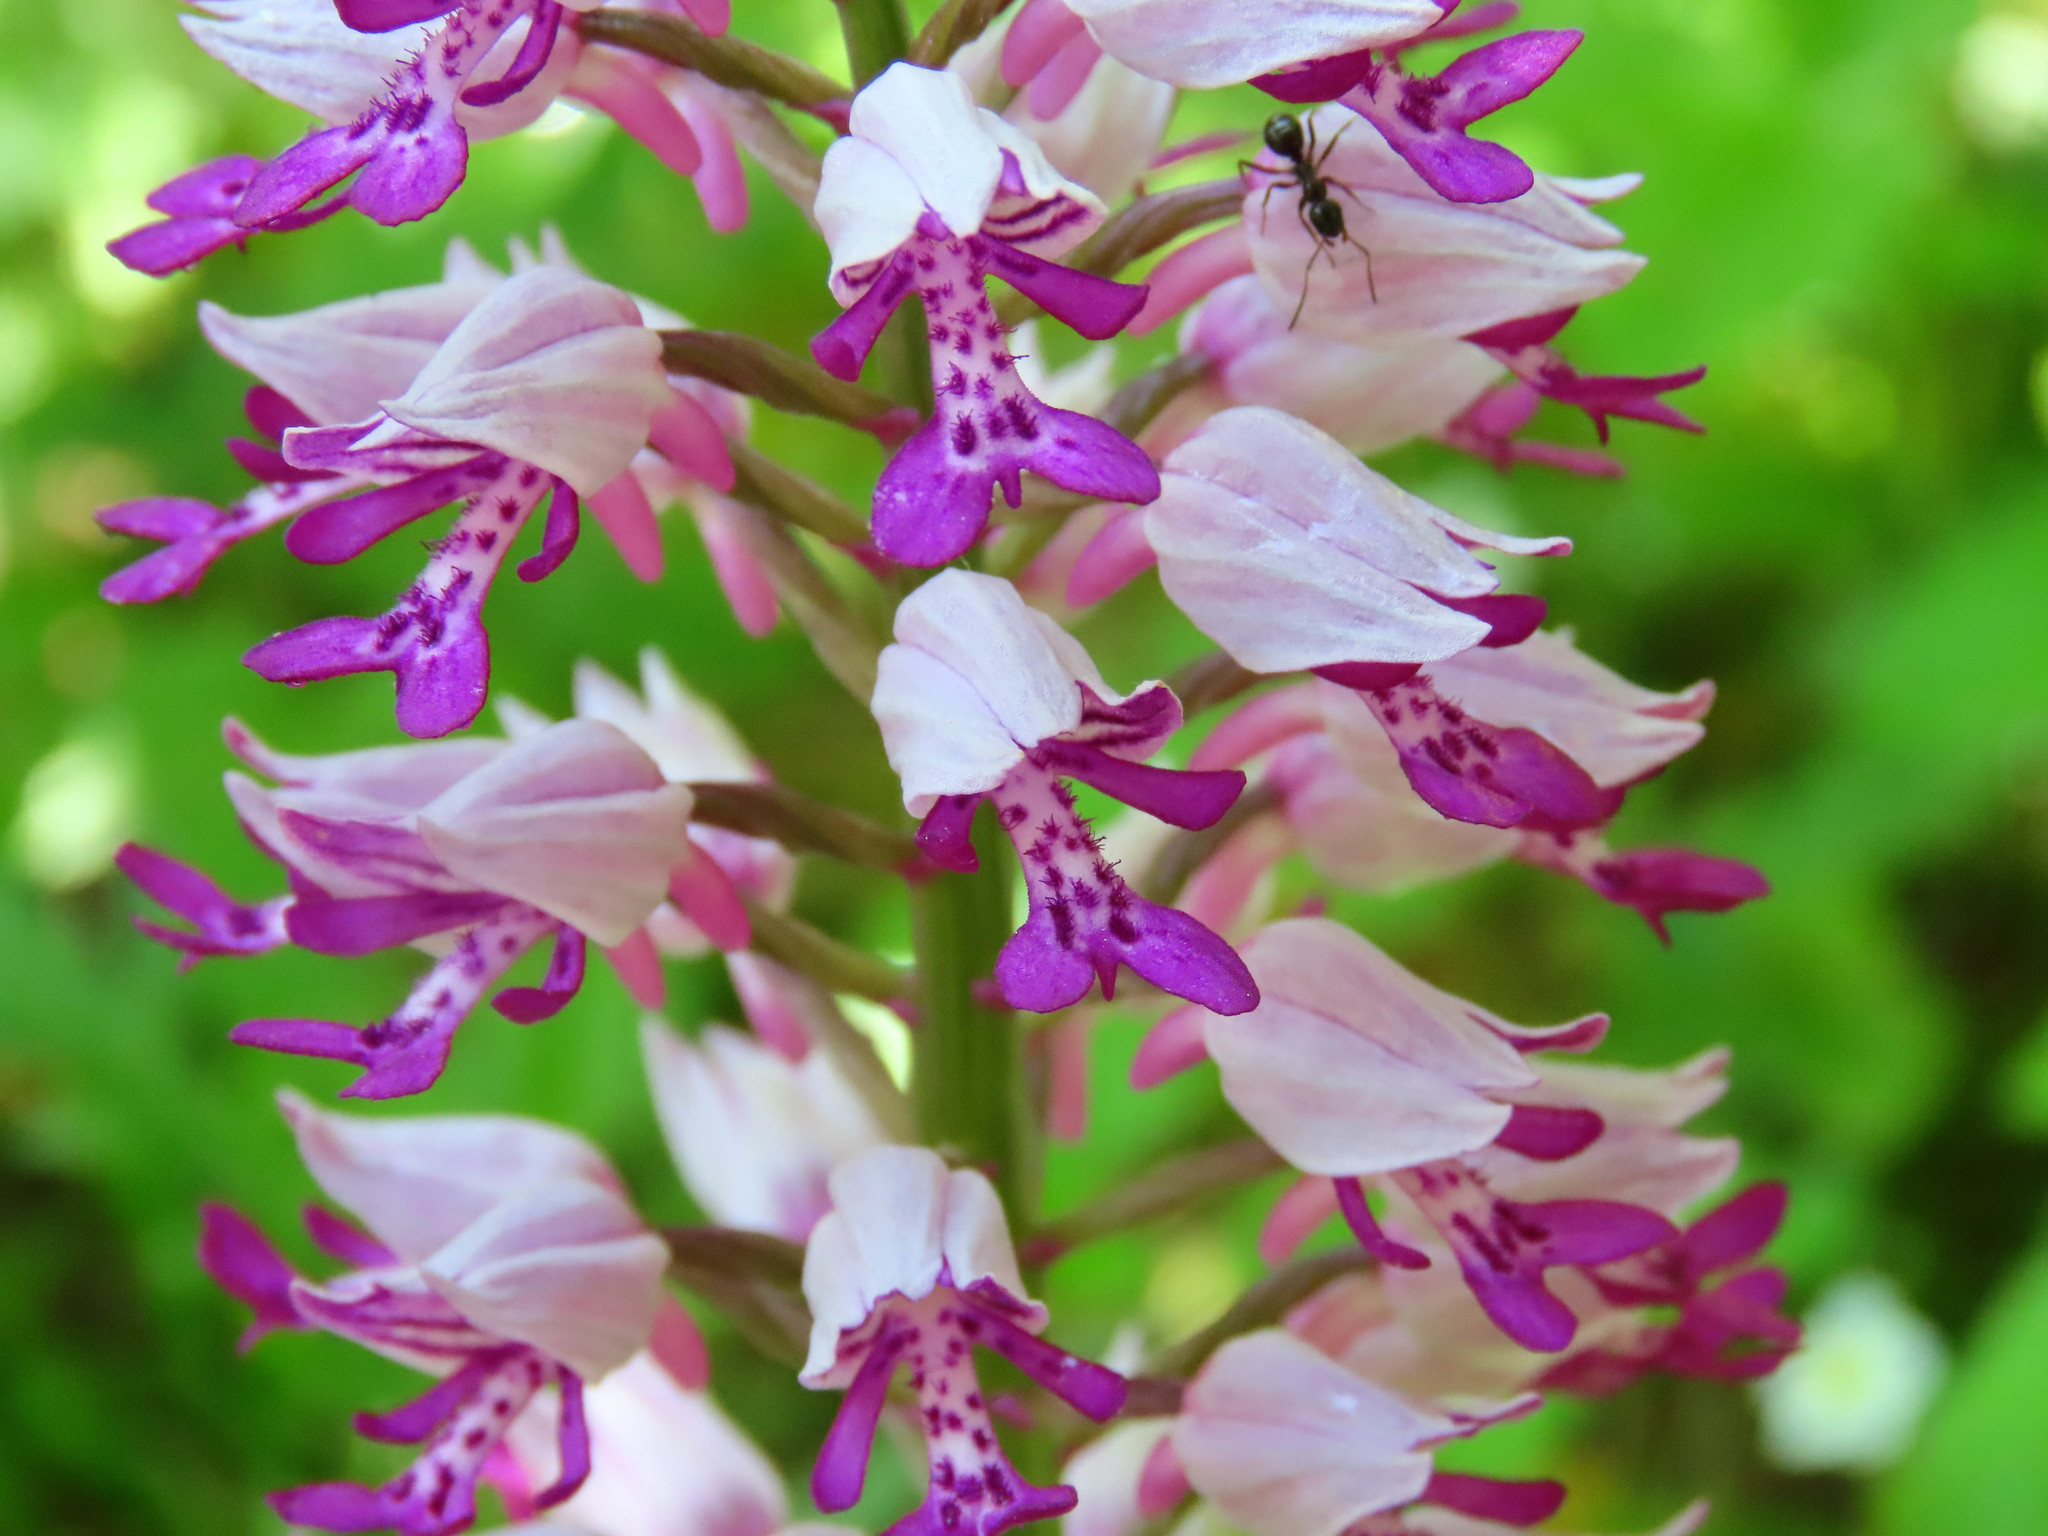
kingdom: Plantae
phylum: Tracheophyta
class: Liliopsida
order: Asparagales
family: Orchidaceae
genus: Orchis
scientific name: Orchis militaris
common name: Military orchid
